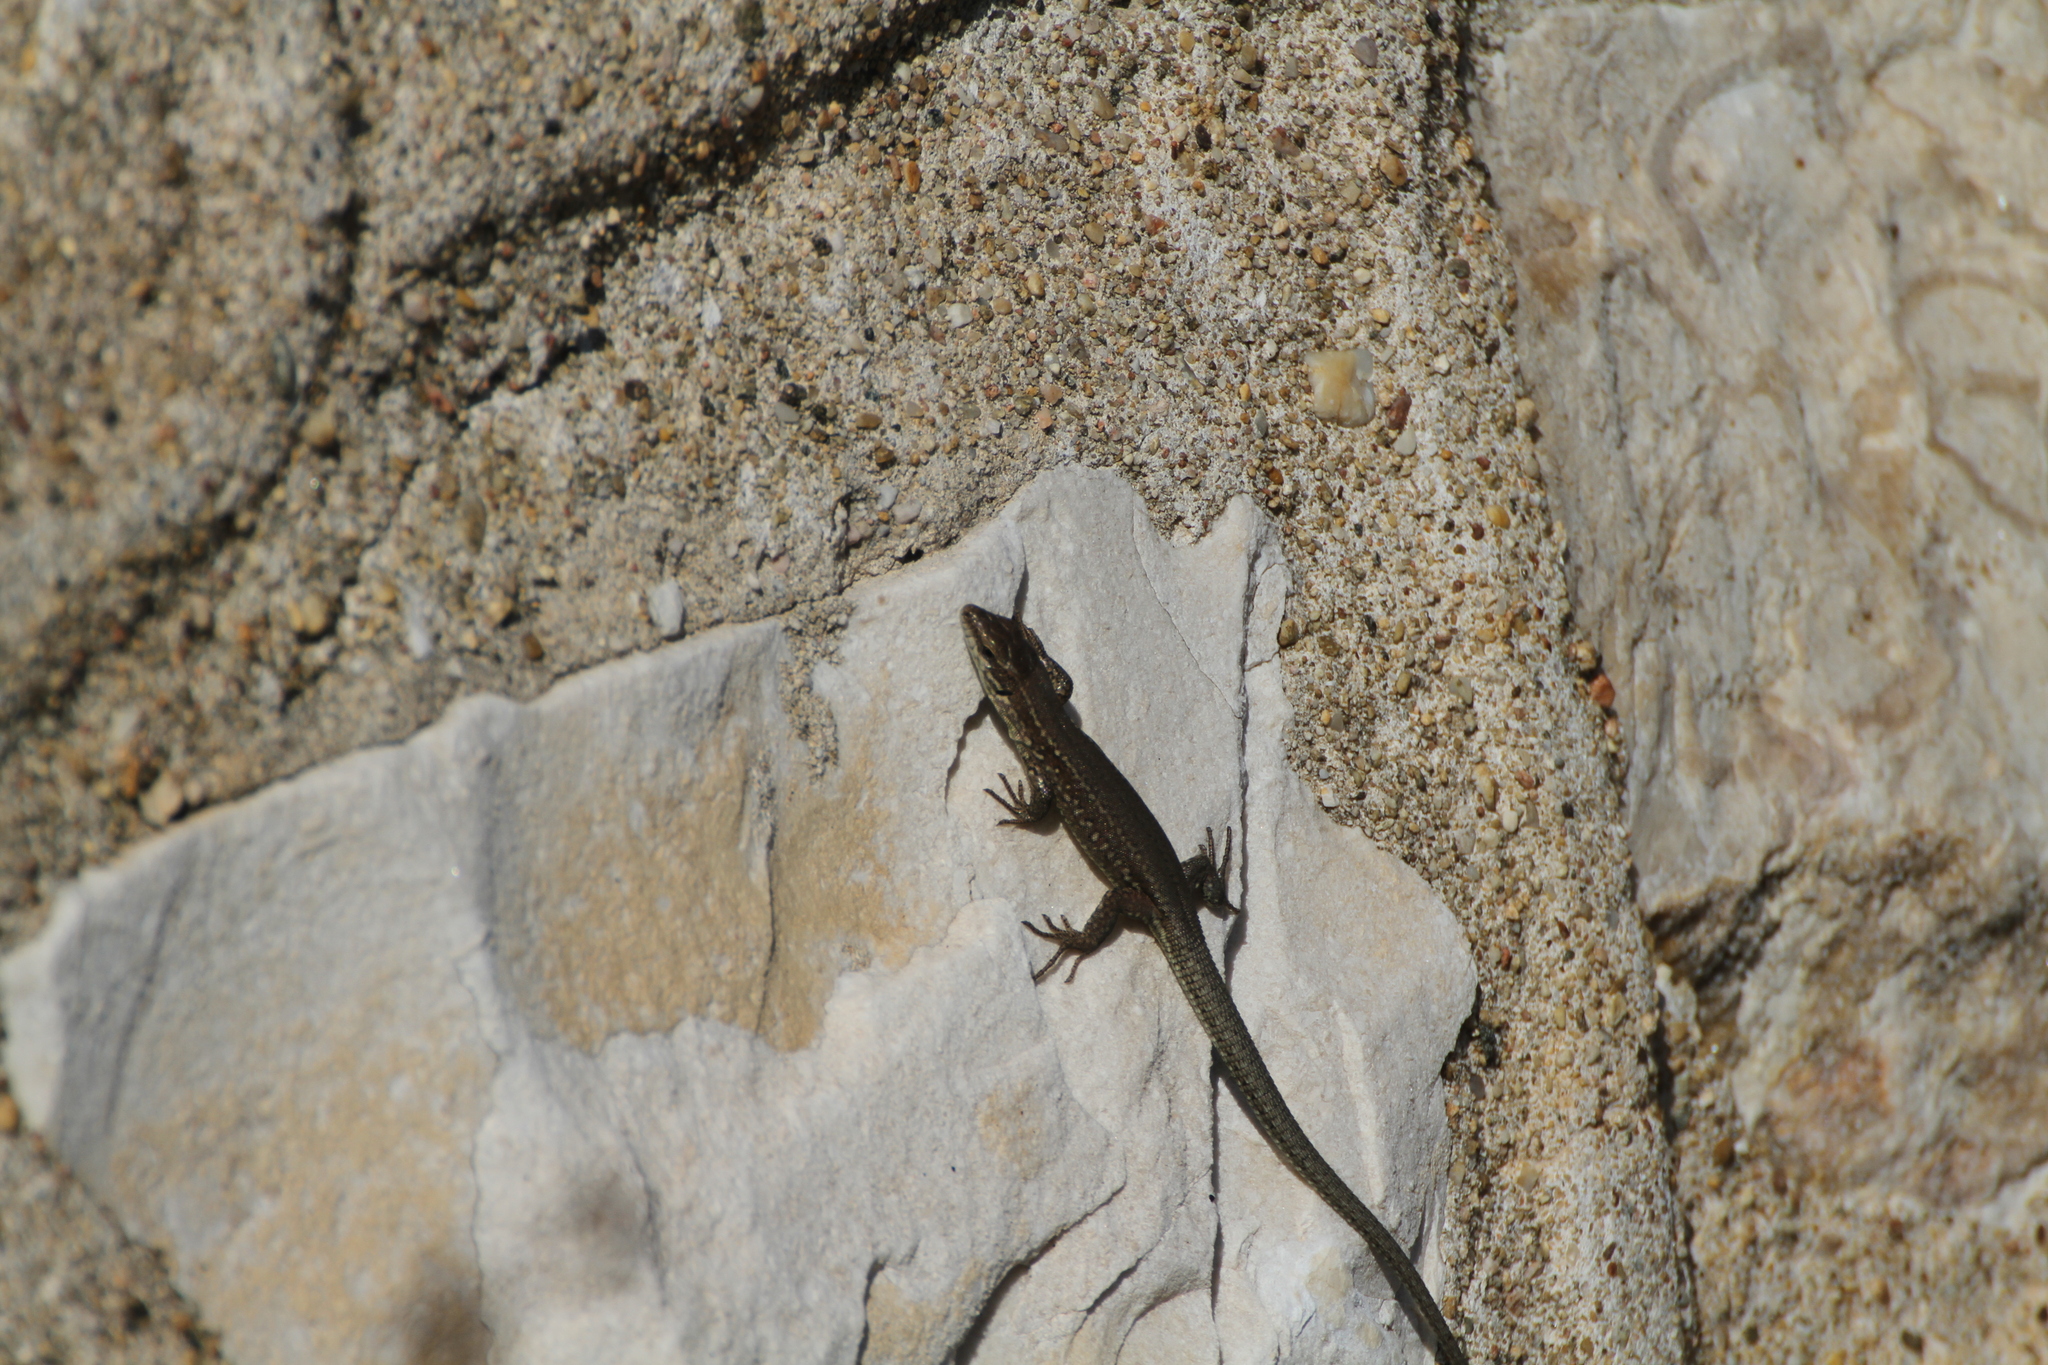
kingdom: Animalia
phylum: Chordata
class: Squamata
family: Lacertidae
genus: Podarcis
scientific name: Podarcis muralis
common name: Common wall lizard
